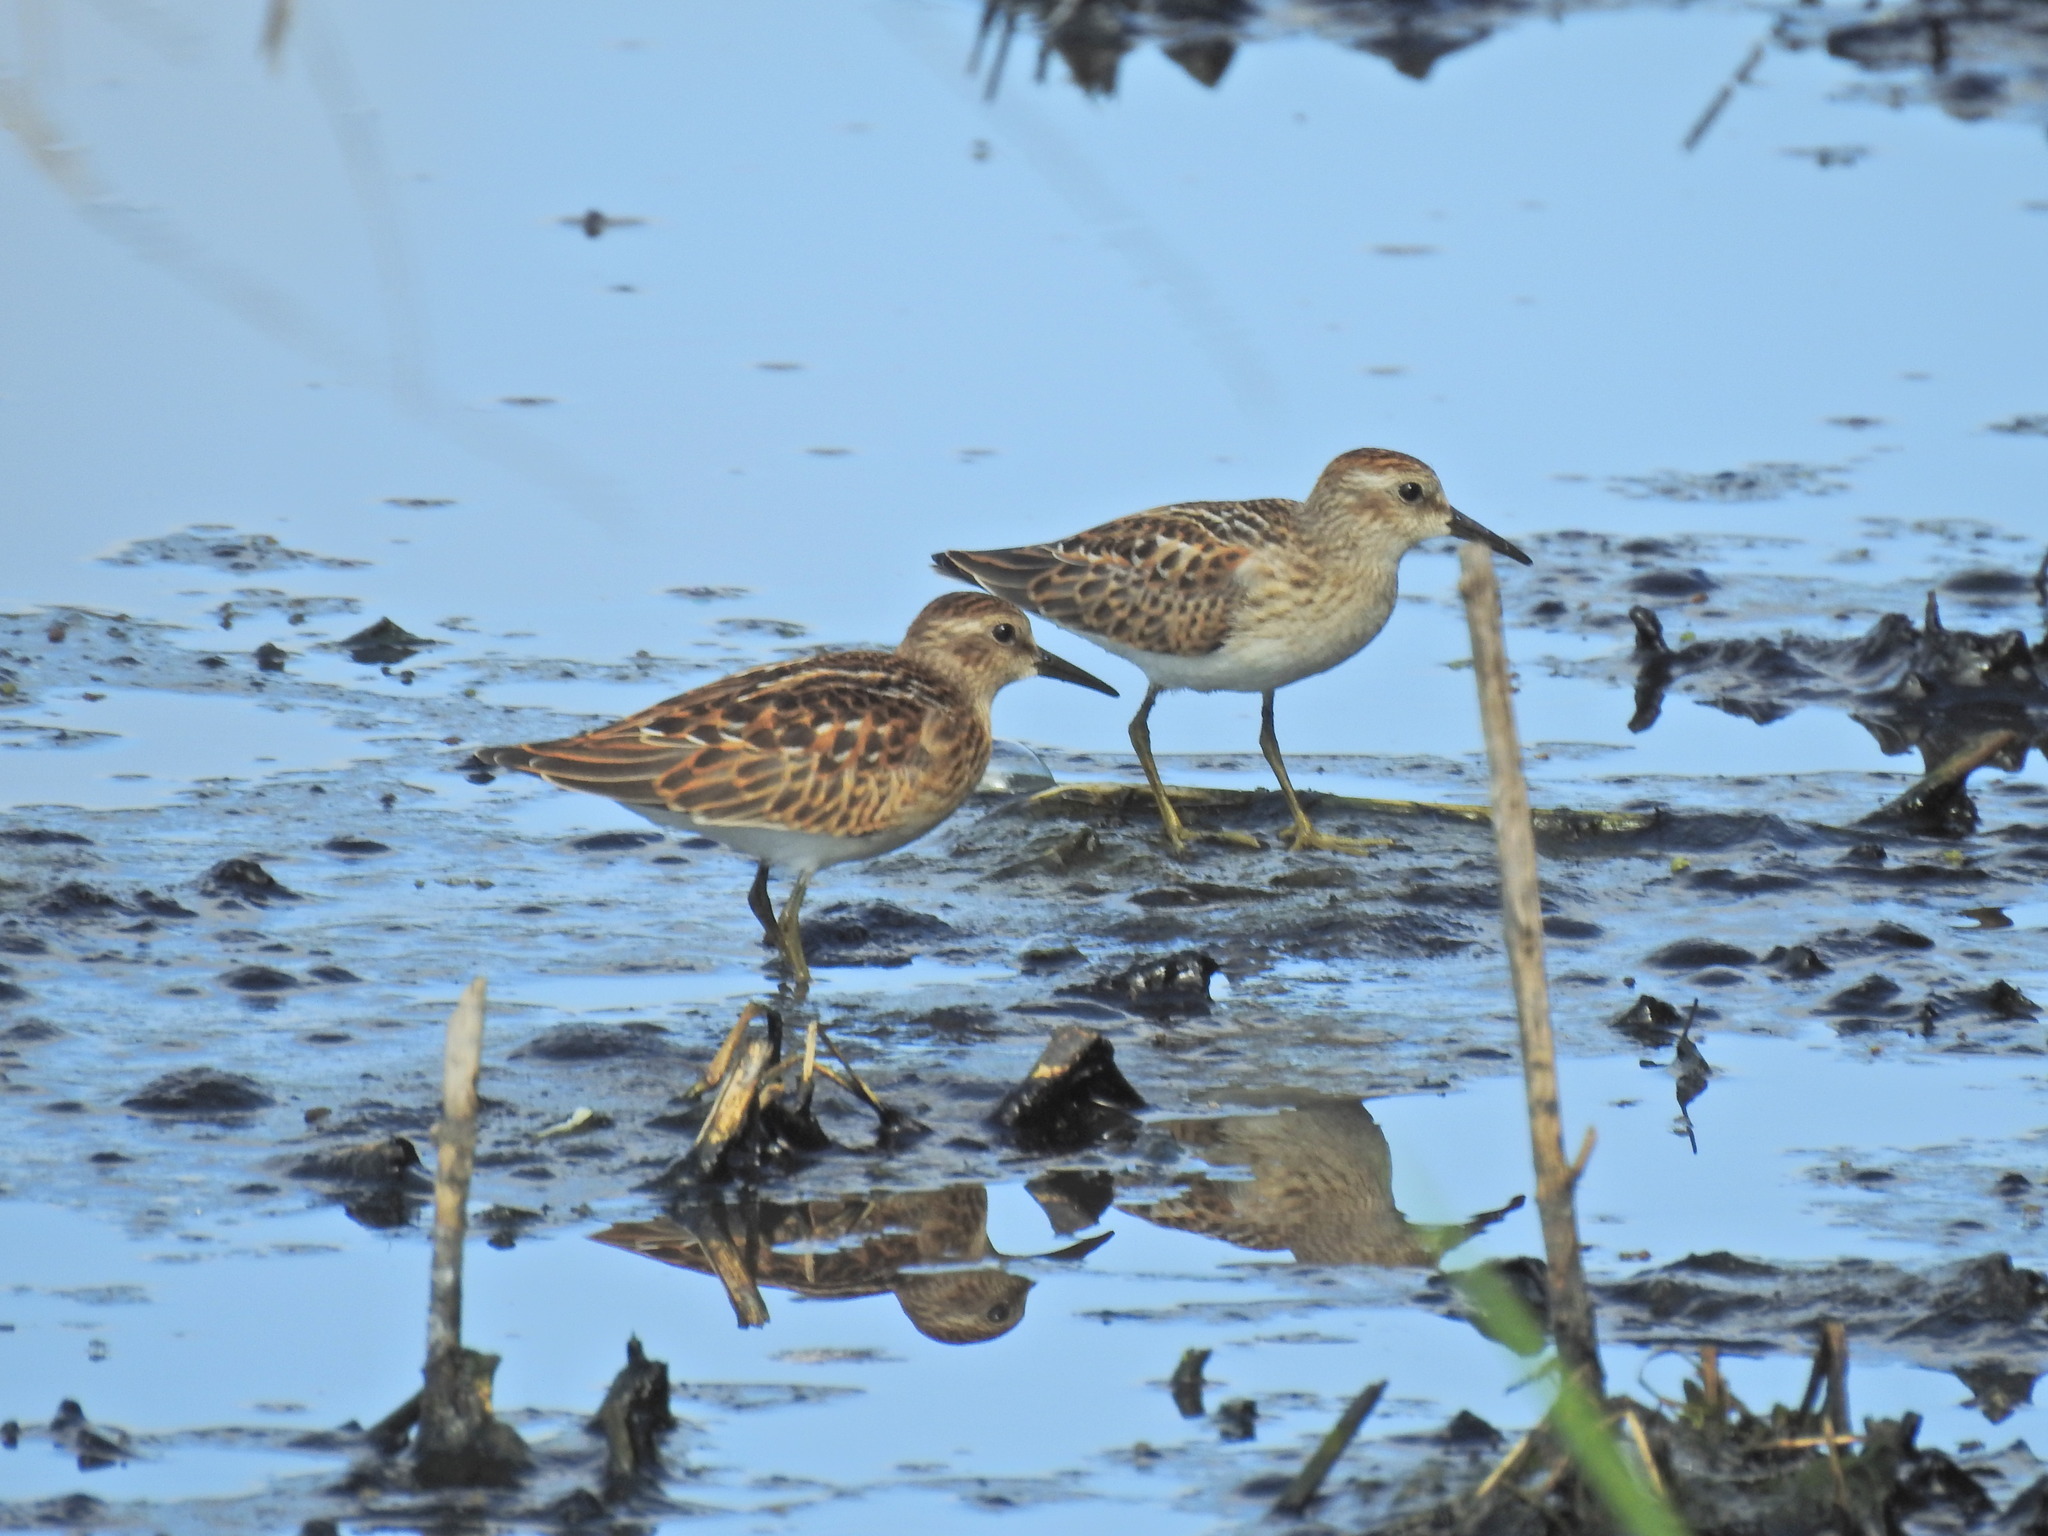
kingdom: Animalia
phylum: Chordata
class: Aves
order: Charadriiformes
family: Scolopacidae
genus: Calidris
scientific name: Calidris minutilla
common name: Least sandpiper
